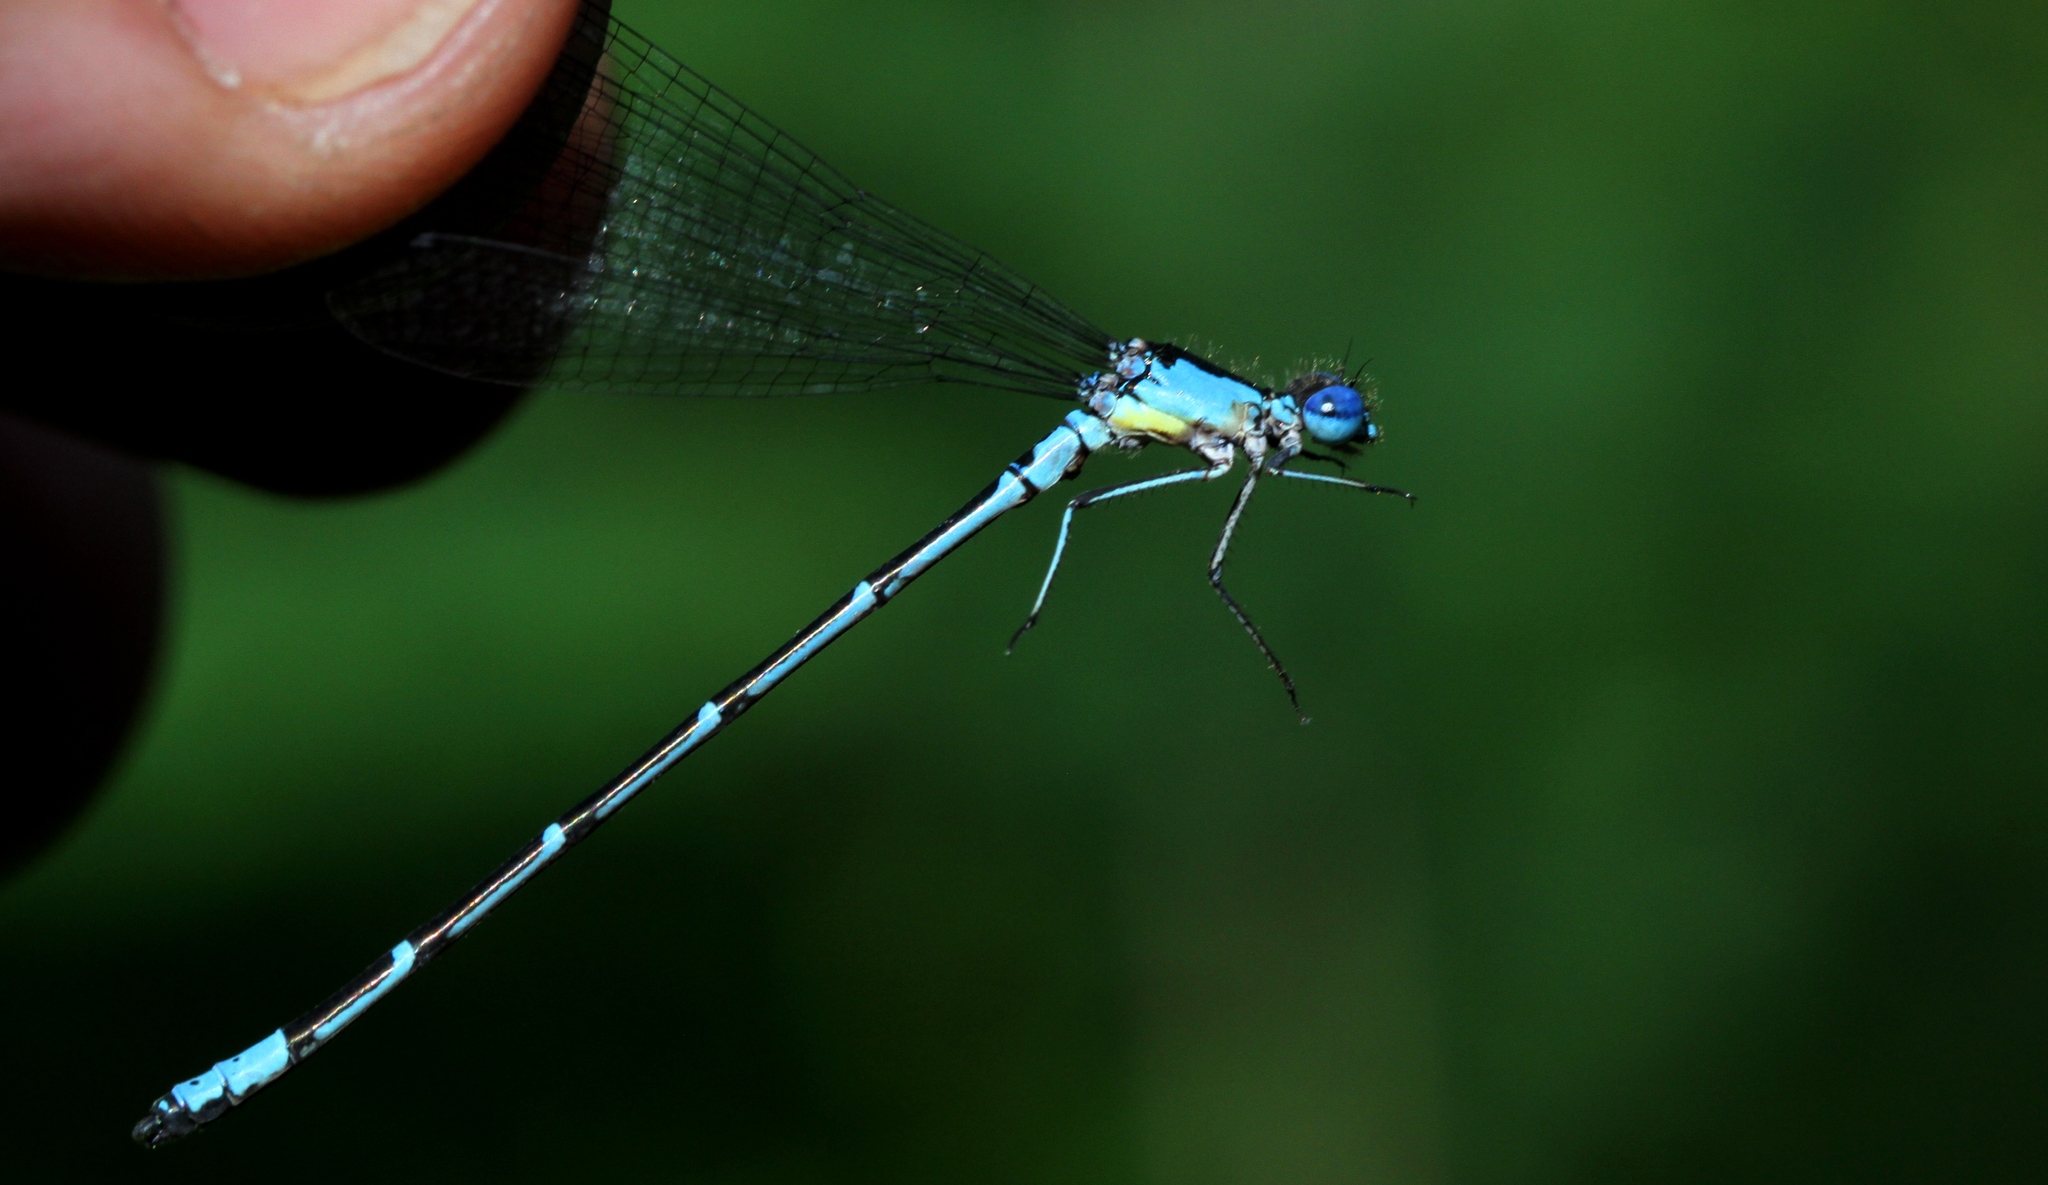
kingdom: Animalia
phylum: Arthropoda
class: Insecta
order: Odonata
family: Coenagrionidae
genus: Chromagrion
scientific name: Chromagrion conditum
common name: Aurora damsel
